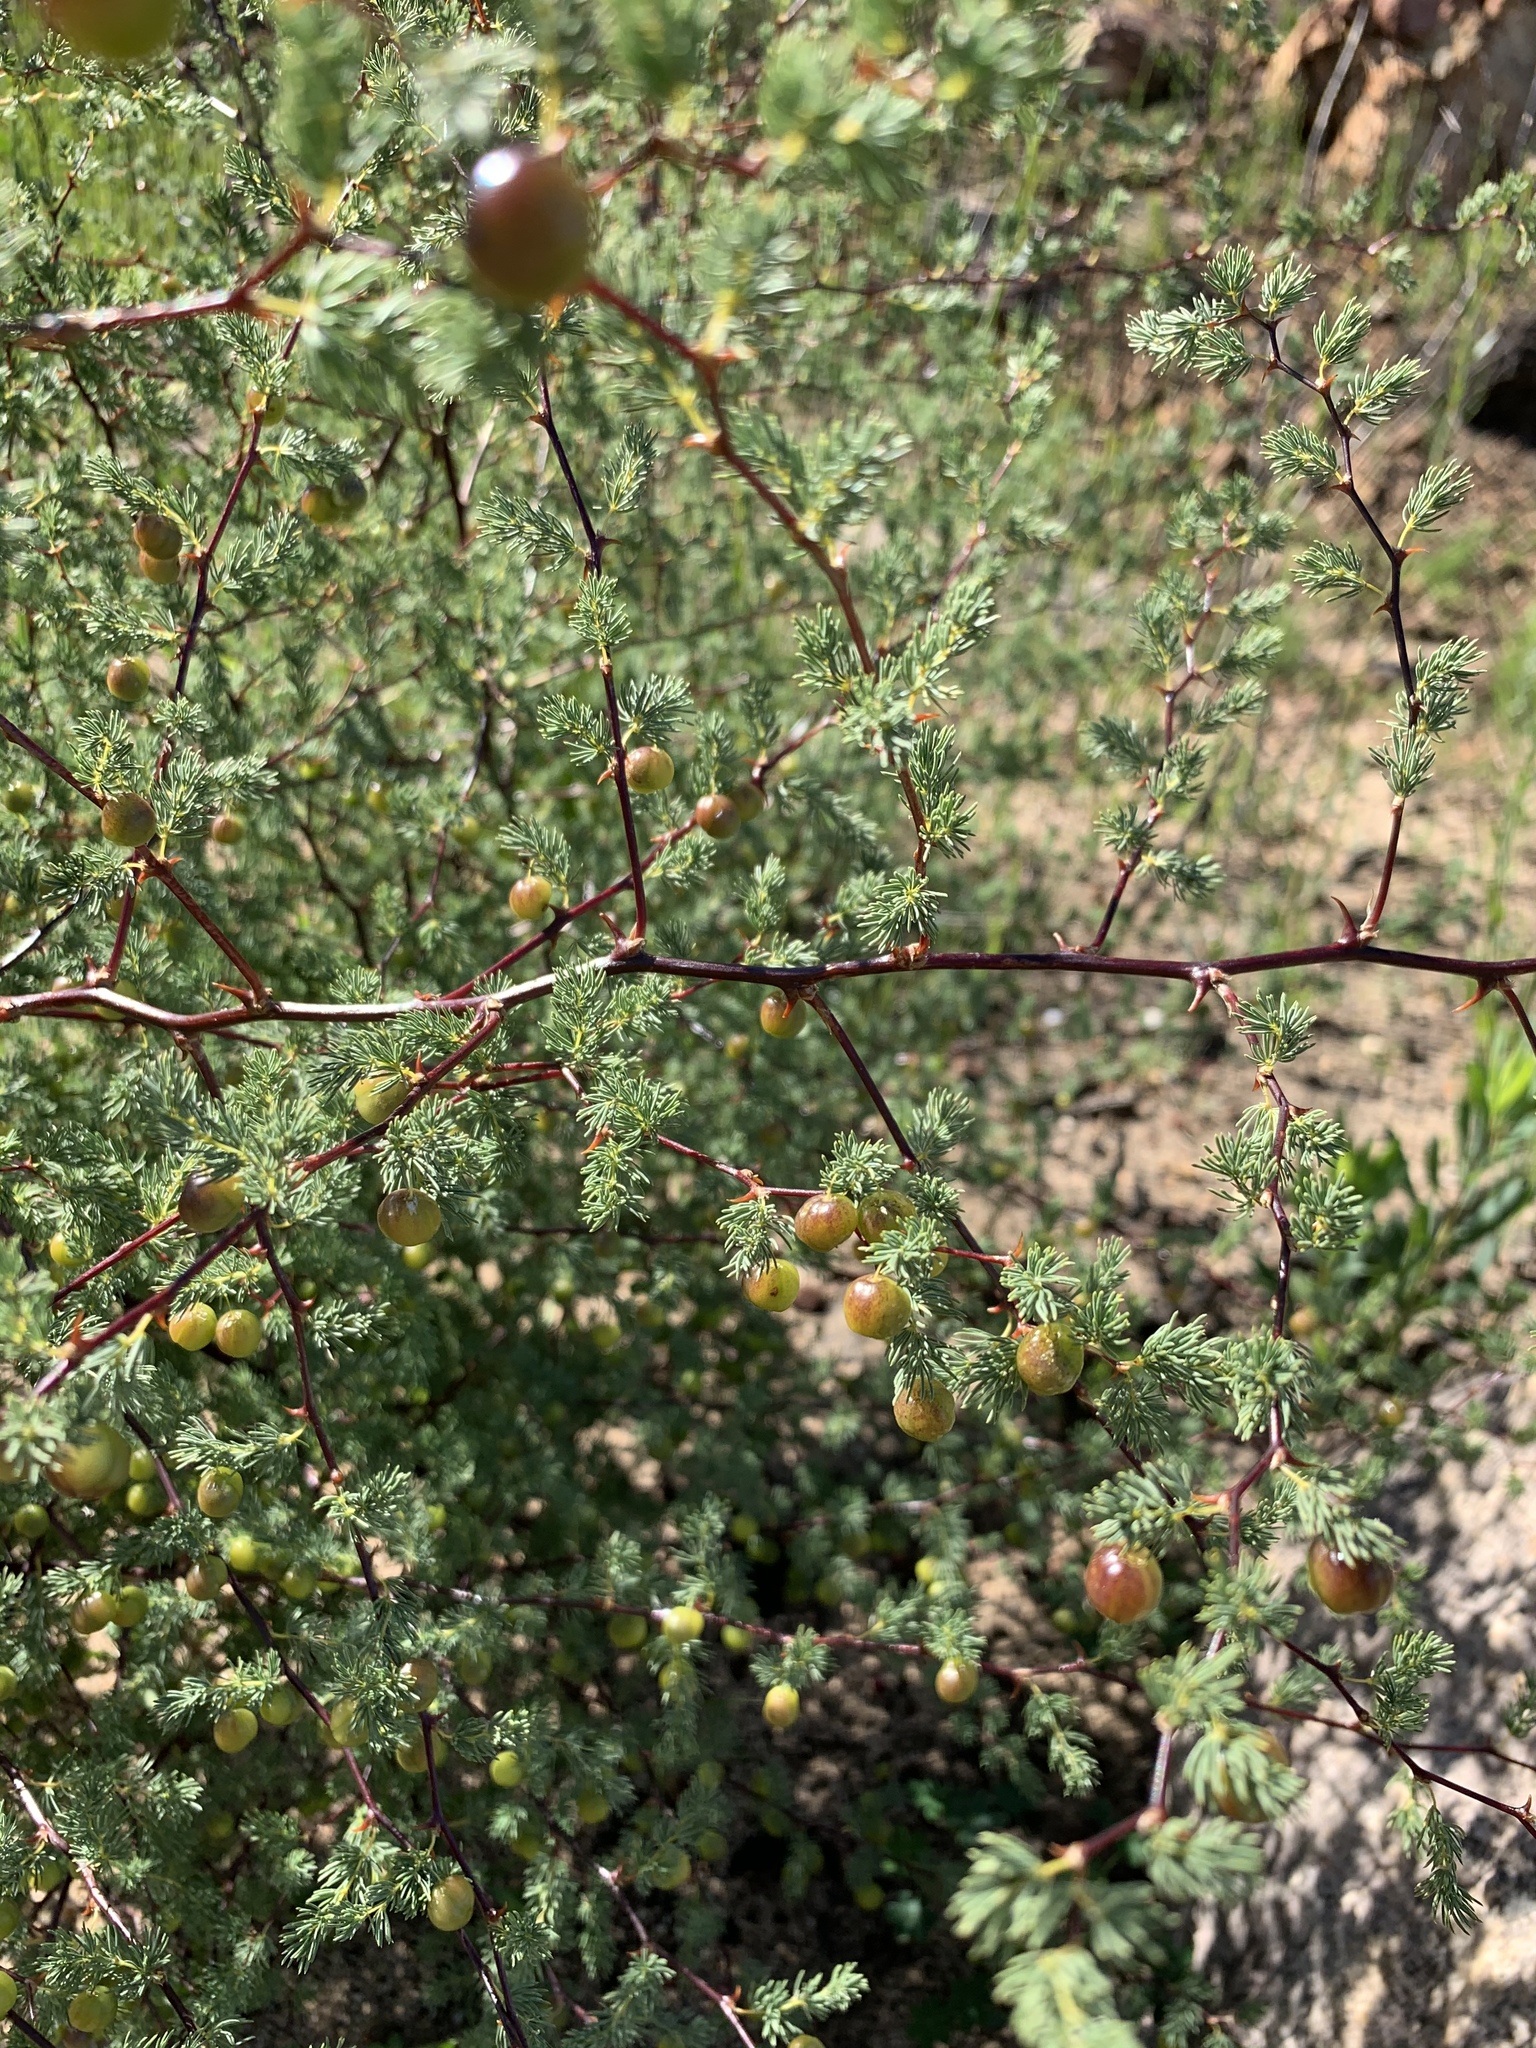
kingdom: Plantae
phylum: Tracheophyta
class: Liliopsida
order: Asparagales
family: Asparagaceae
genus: Asparagus
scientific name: Asparagus rubicundus
